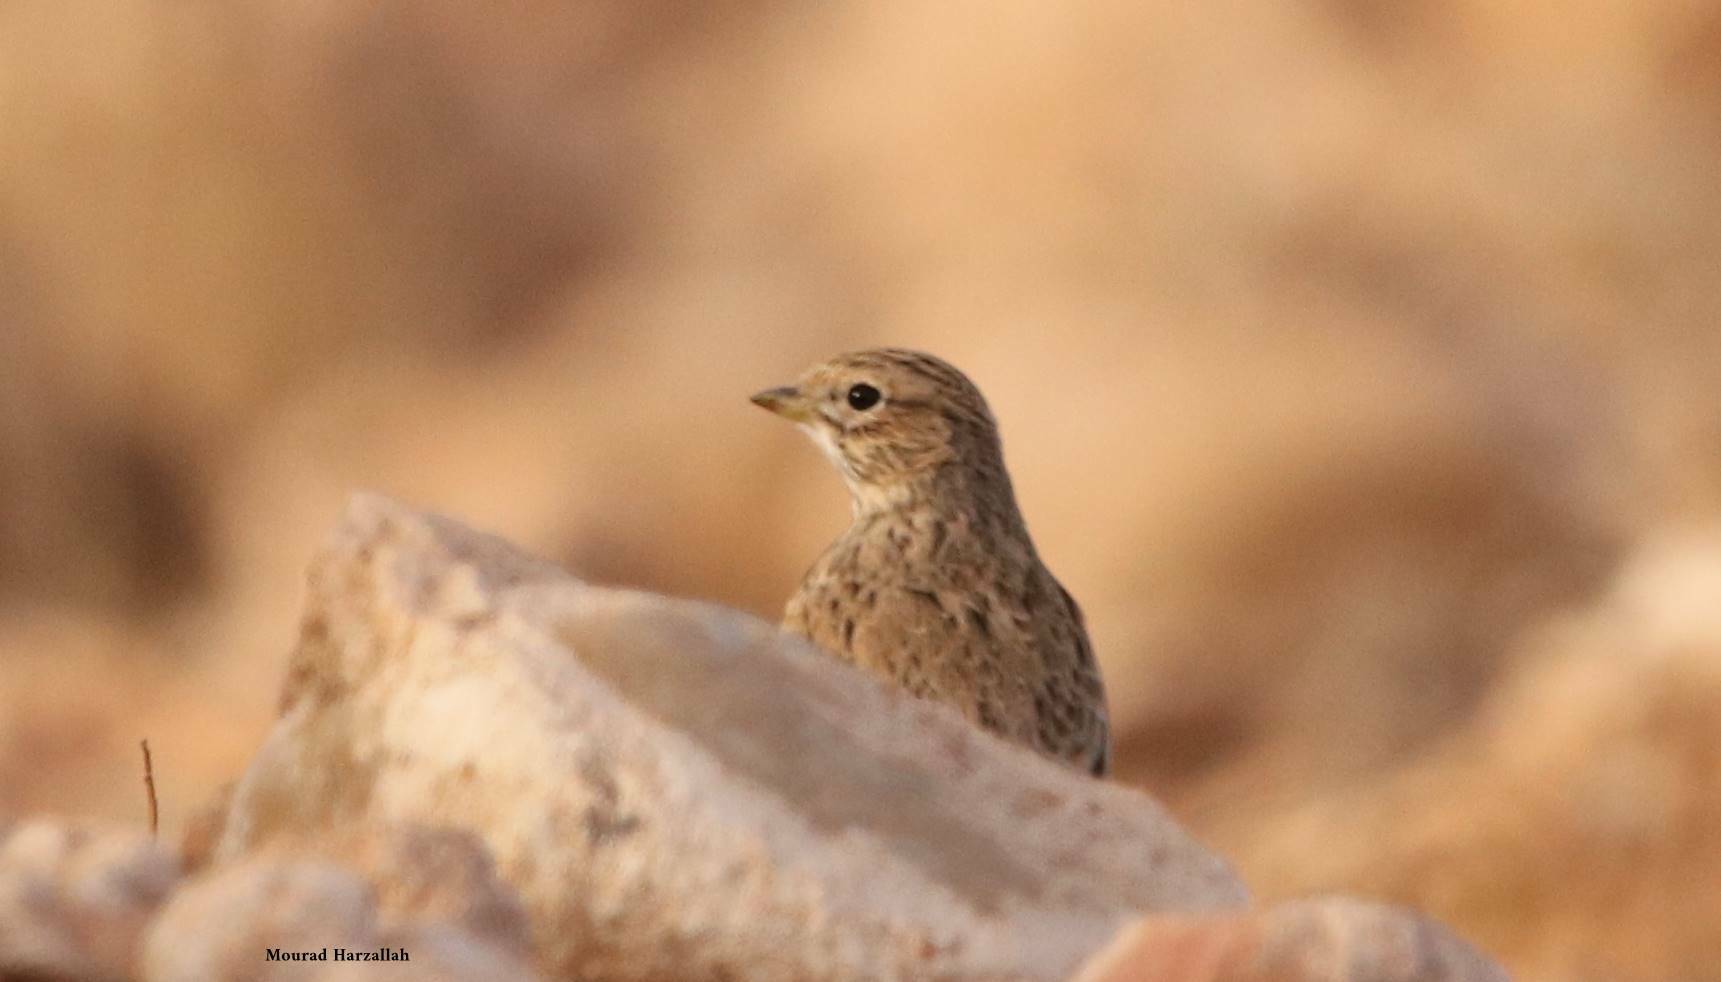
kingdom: Animalia
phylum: Chordata
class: Aves
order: Passeriformes
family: Alaudidae
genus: Calandrella
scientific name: Calandrella rufescens
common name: Lesser short-toed lark
